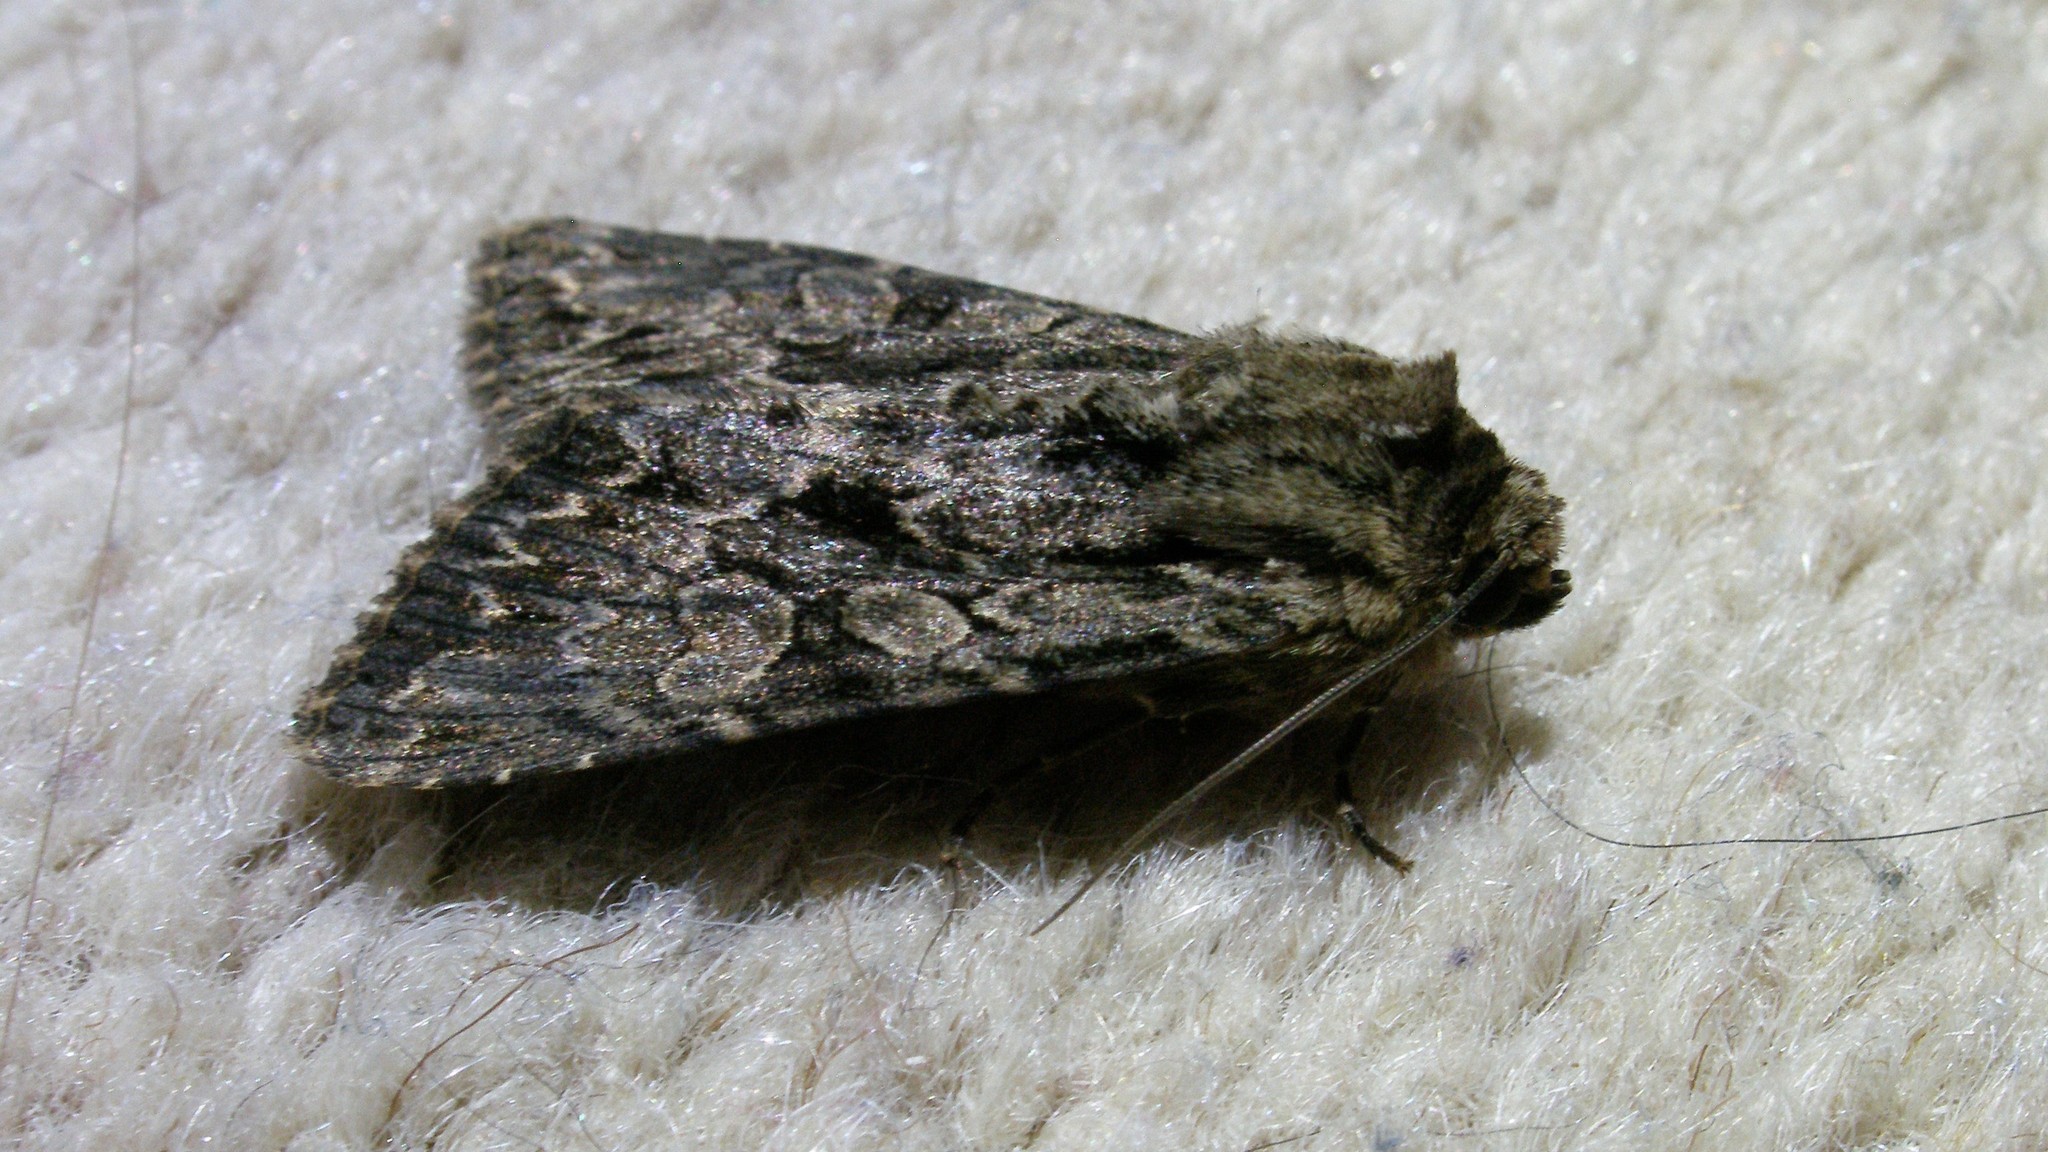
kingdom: Animalia
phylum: Arthropoda
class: Insecta
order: Lepidoptera
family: Noctuidae
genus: Apamea
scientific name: Apamea monoglypha
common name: Dark arches
